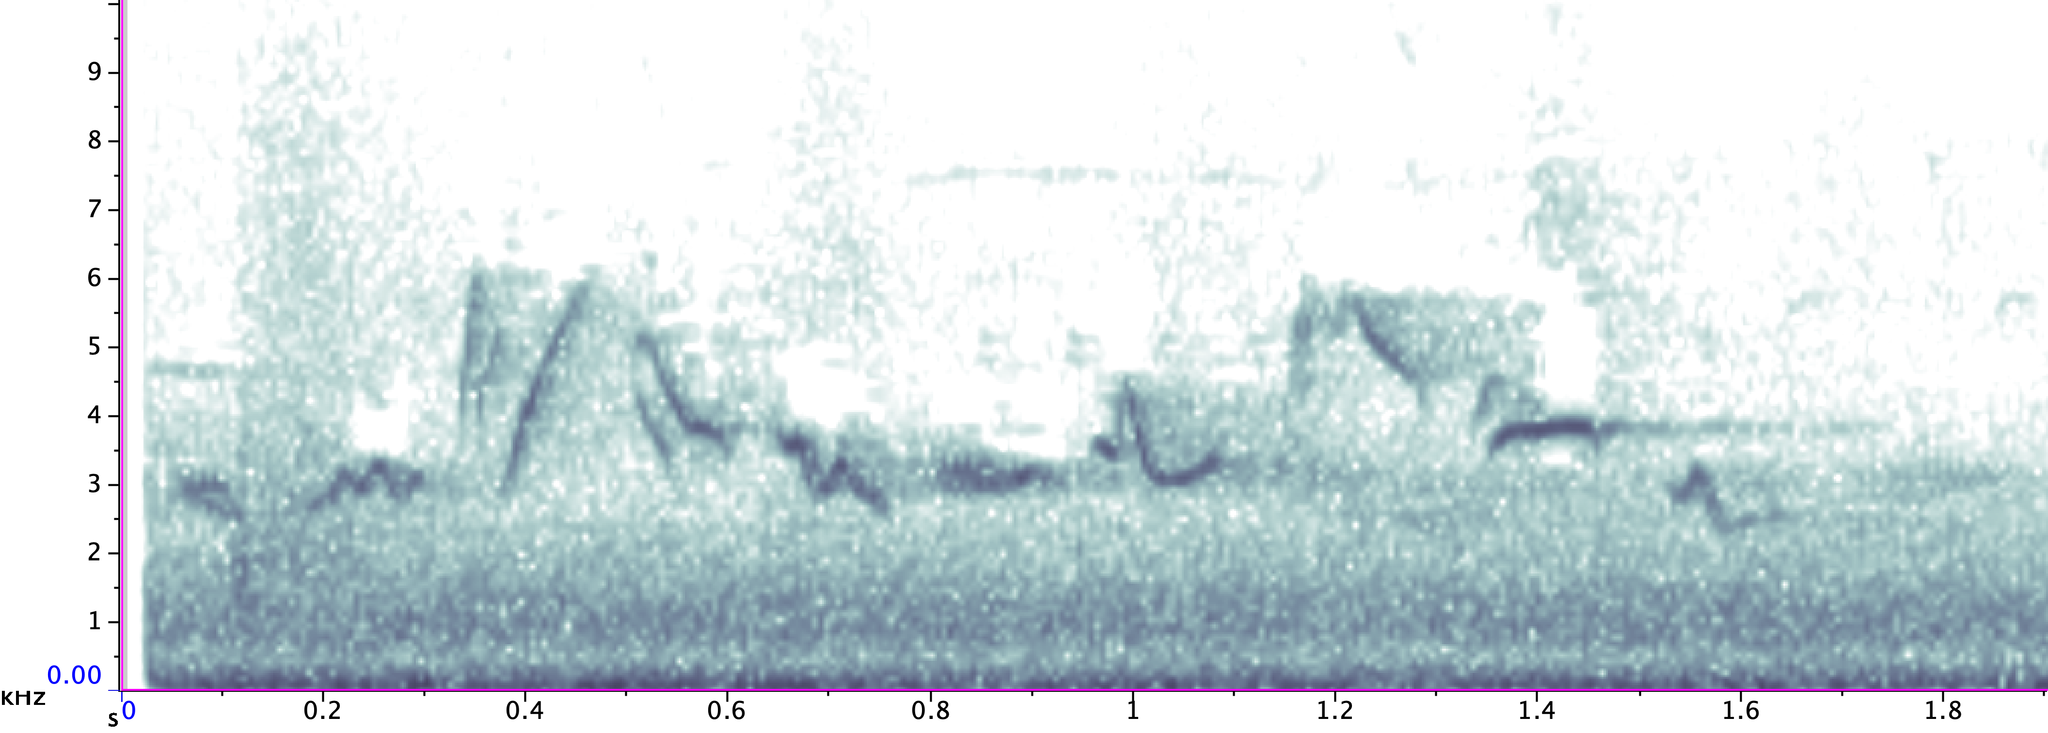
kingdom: Animalia
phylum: Chordata
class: Aves
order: Passeriformes
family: Vireonidae
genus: Vireo
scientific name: Vireo gilvus
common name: Warbling vireo
